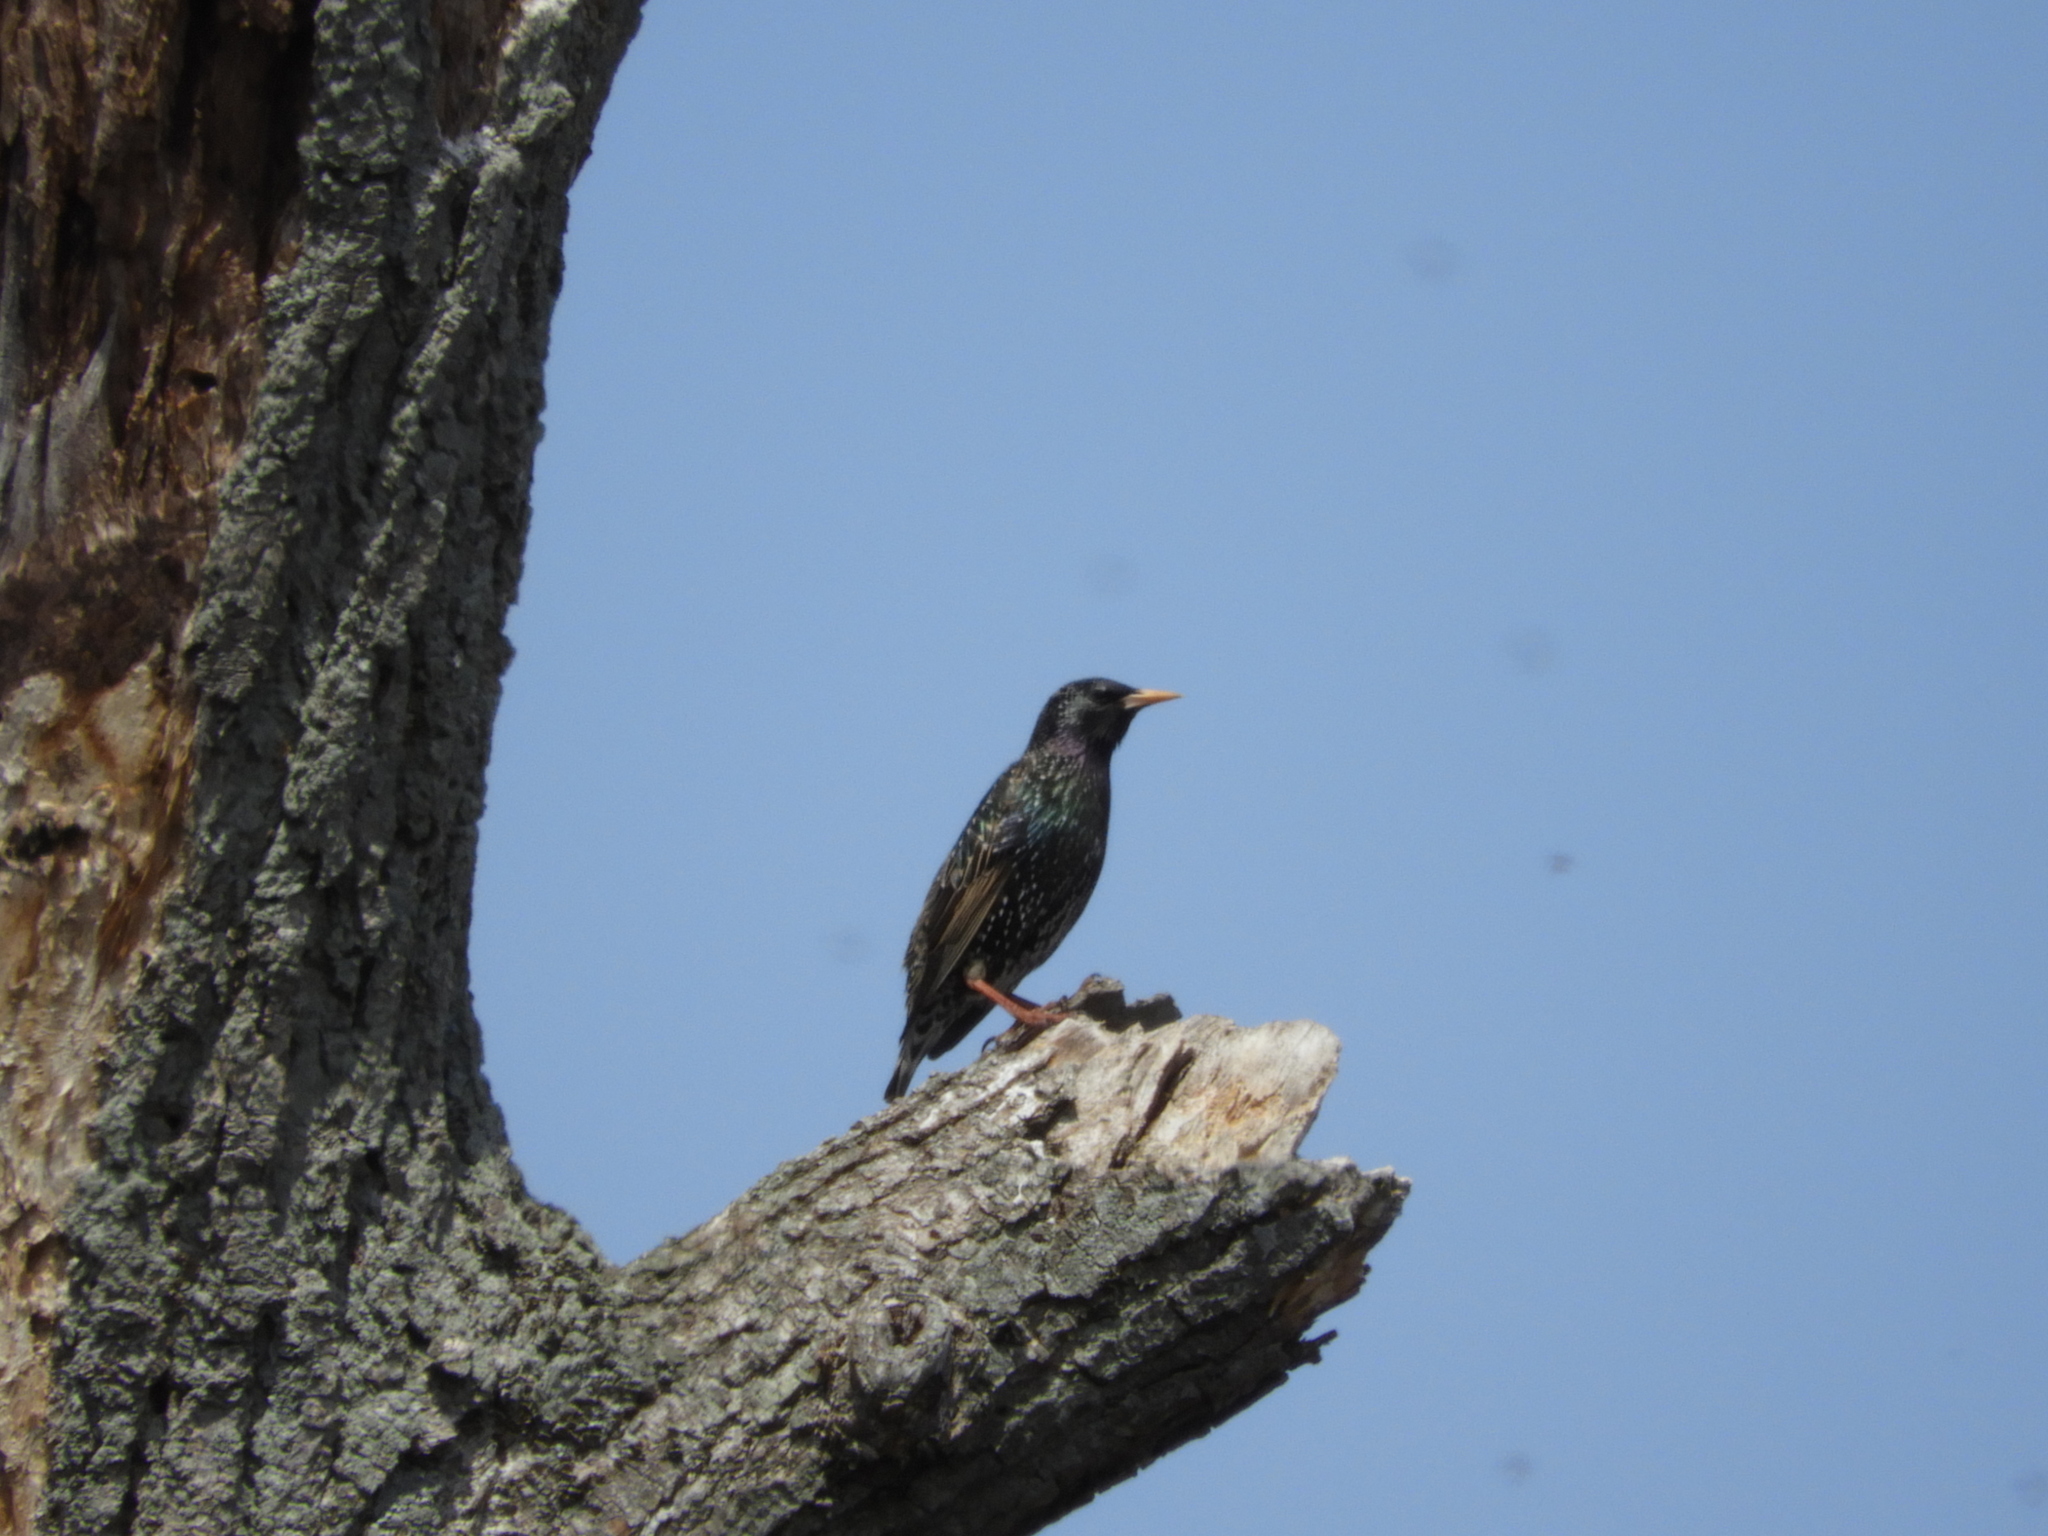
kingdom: Animalia
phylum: Chordata
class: Aves
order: Passeriformes
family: Sturnidae
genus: Sturnus
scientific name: Sturnus vulgaris
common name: Common starling
